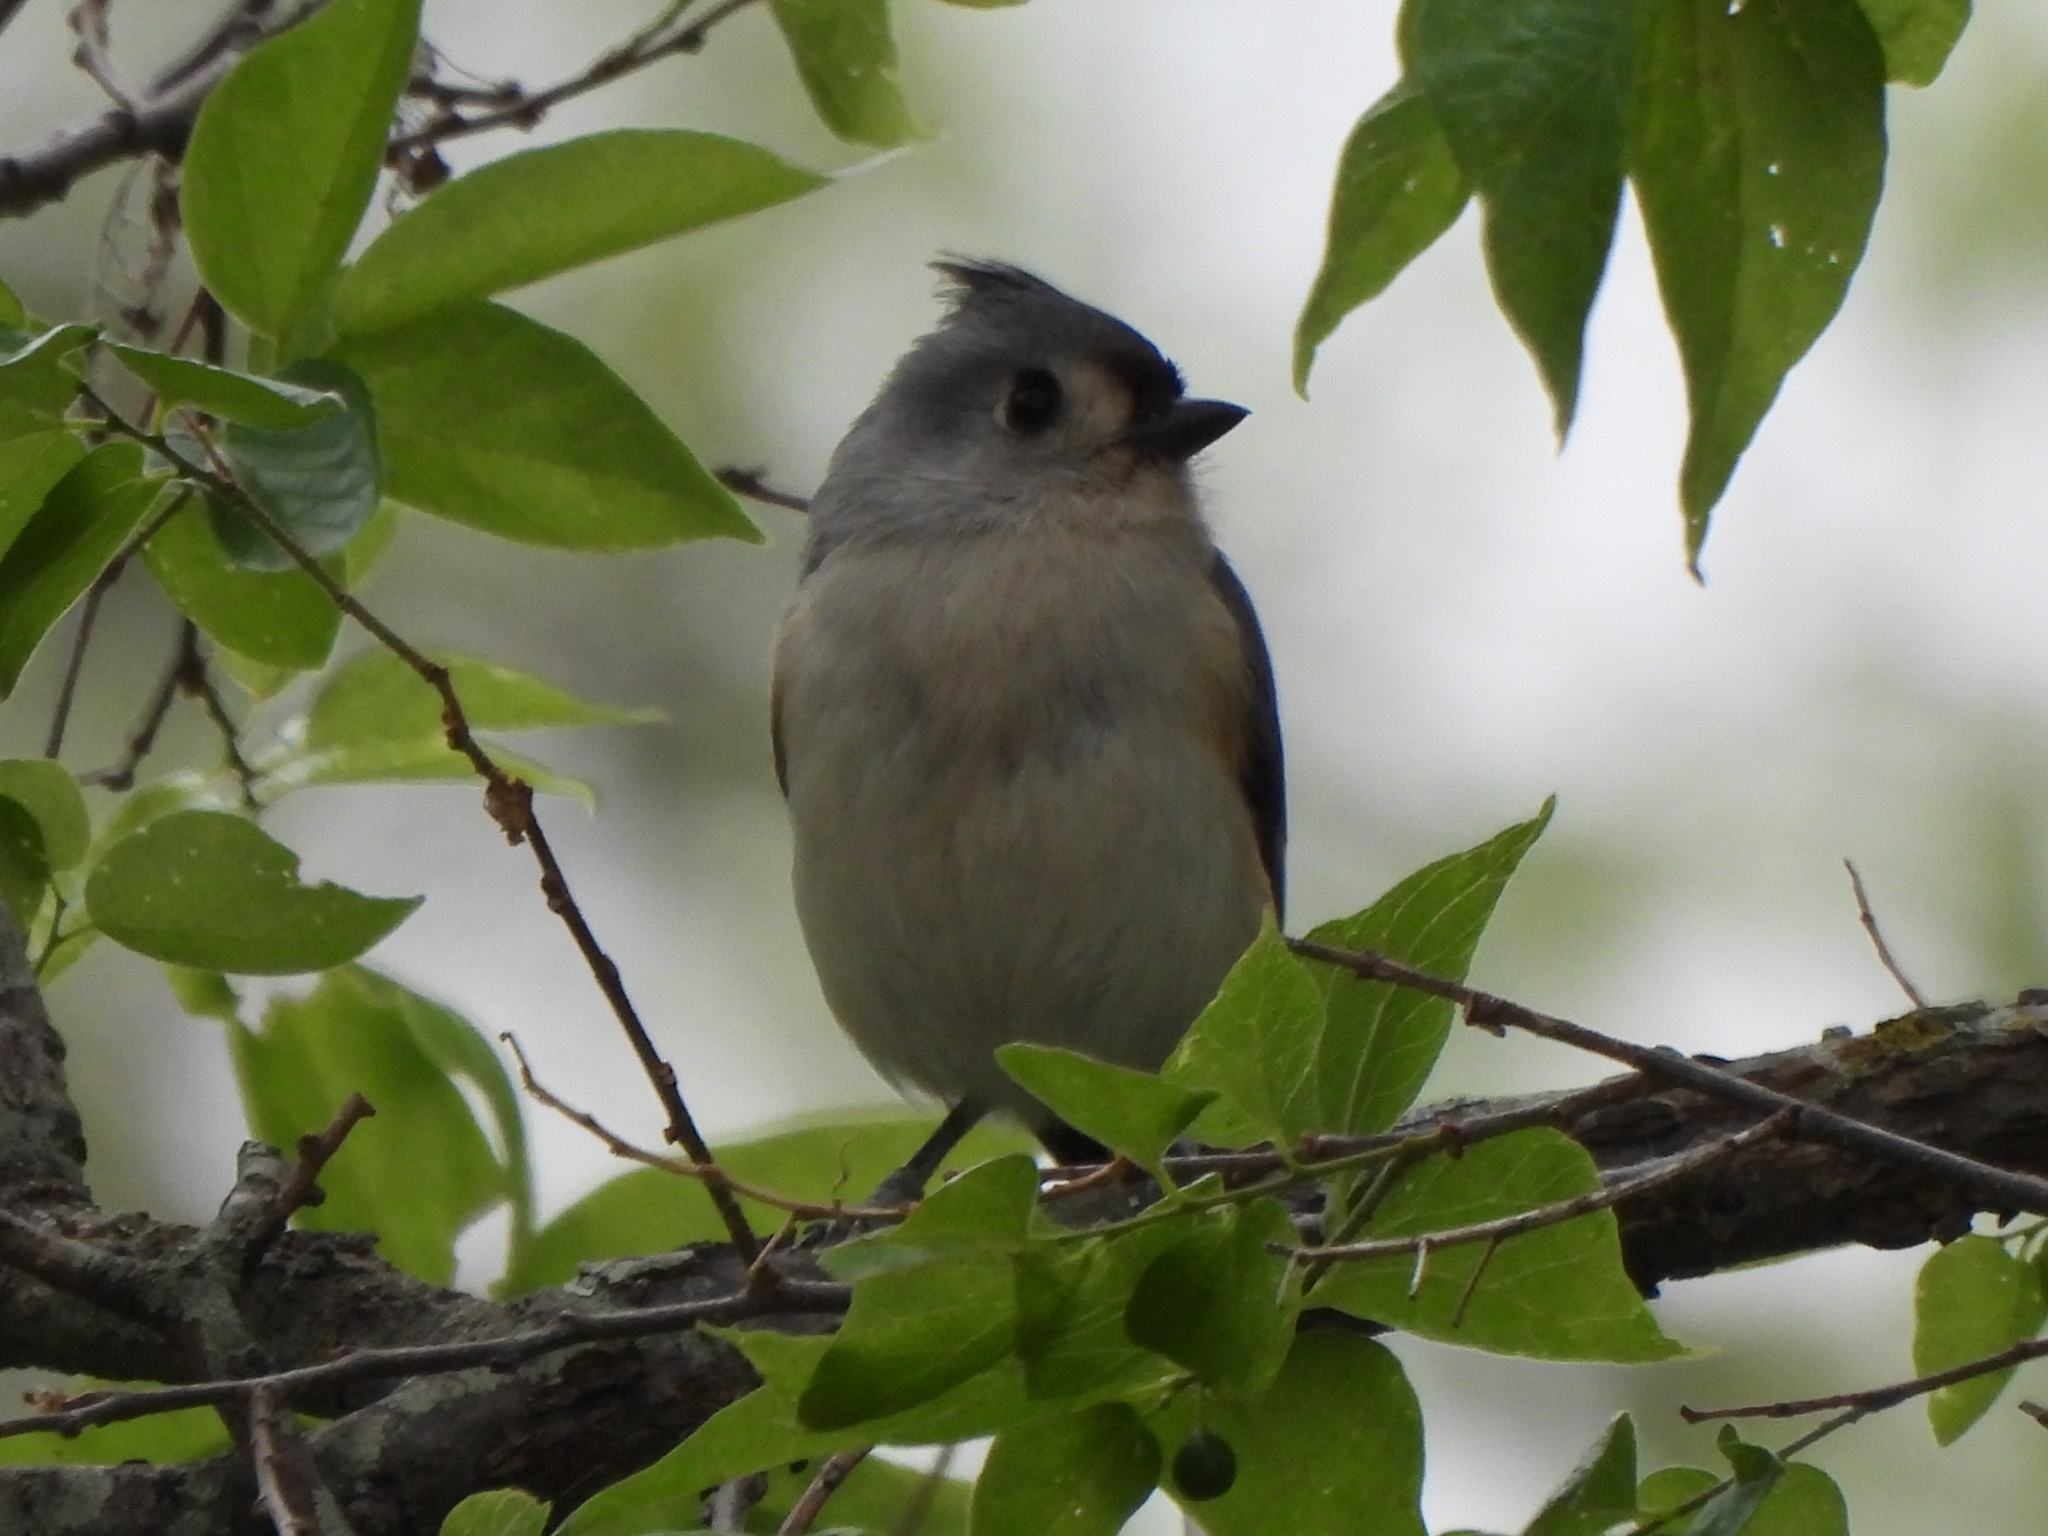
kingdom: Animalia
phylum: Chordata
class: Aves
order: Passeriformes
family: Paridae
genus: Baeolophus
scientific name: Baeolophus bicolor
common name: Tufted titmouse
